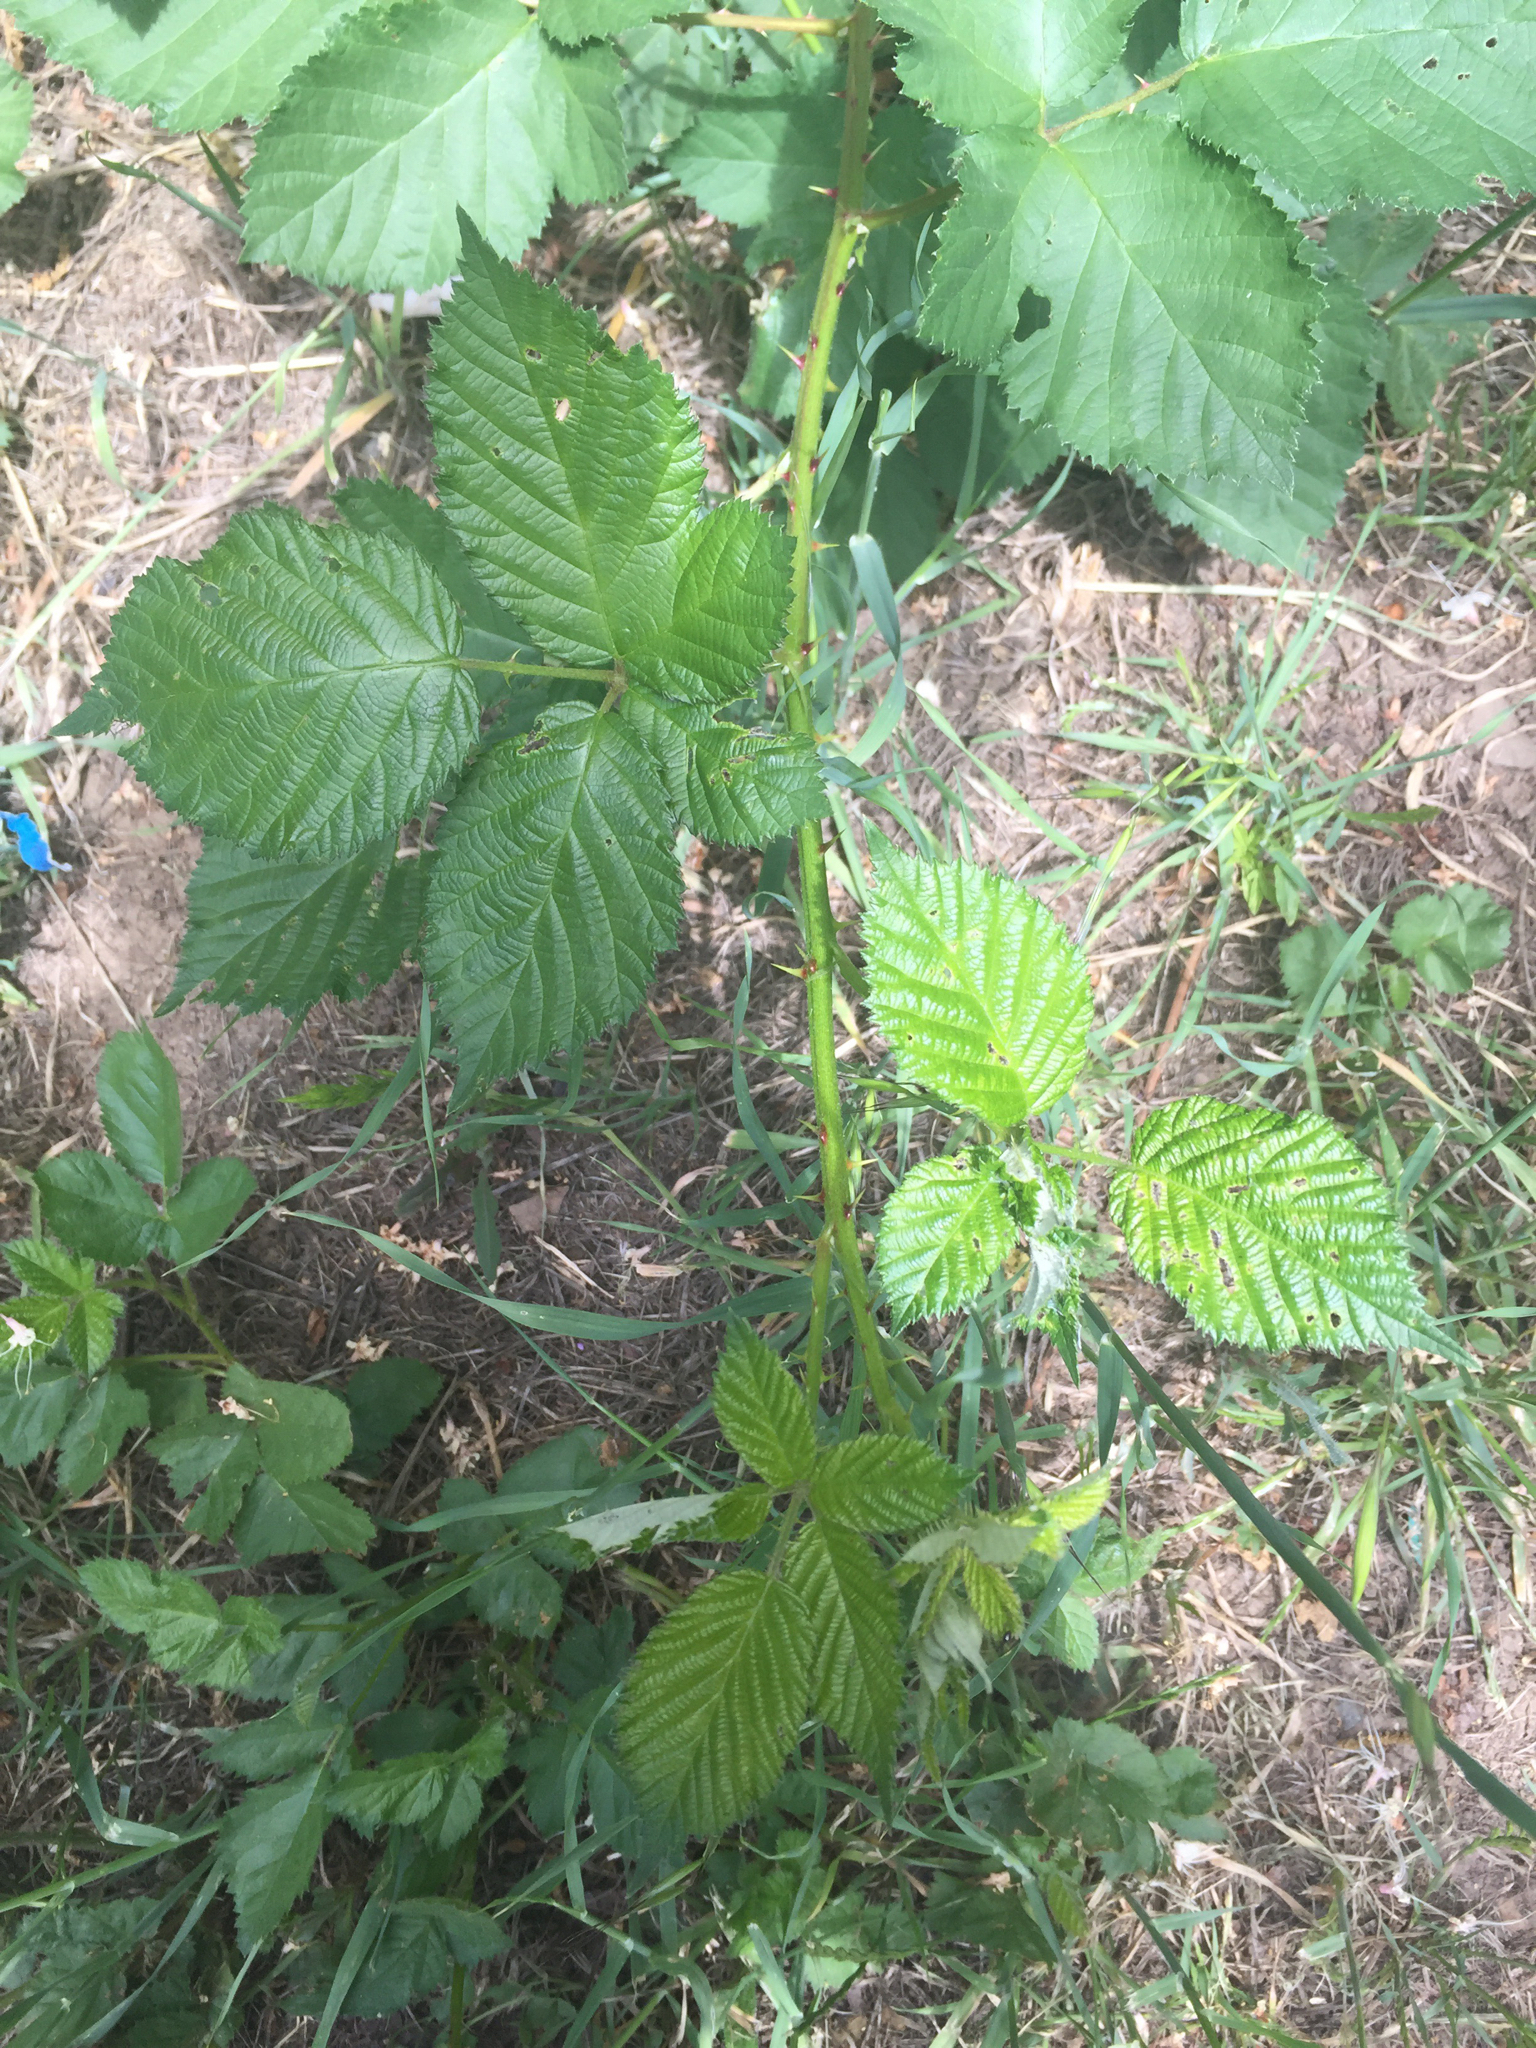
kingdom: Plantae
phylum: Tracheophyta
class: Magnoliopsida
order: Rosales
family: Rosaceae
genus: Rubus
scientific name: Rubus armeniacus
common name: Himalayan blackberry
